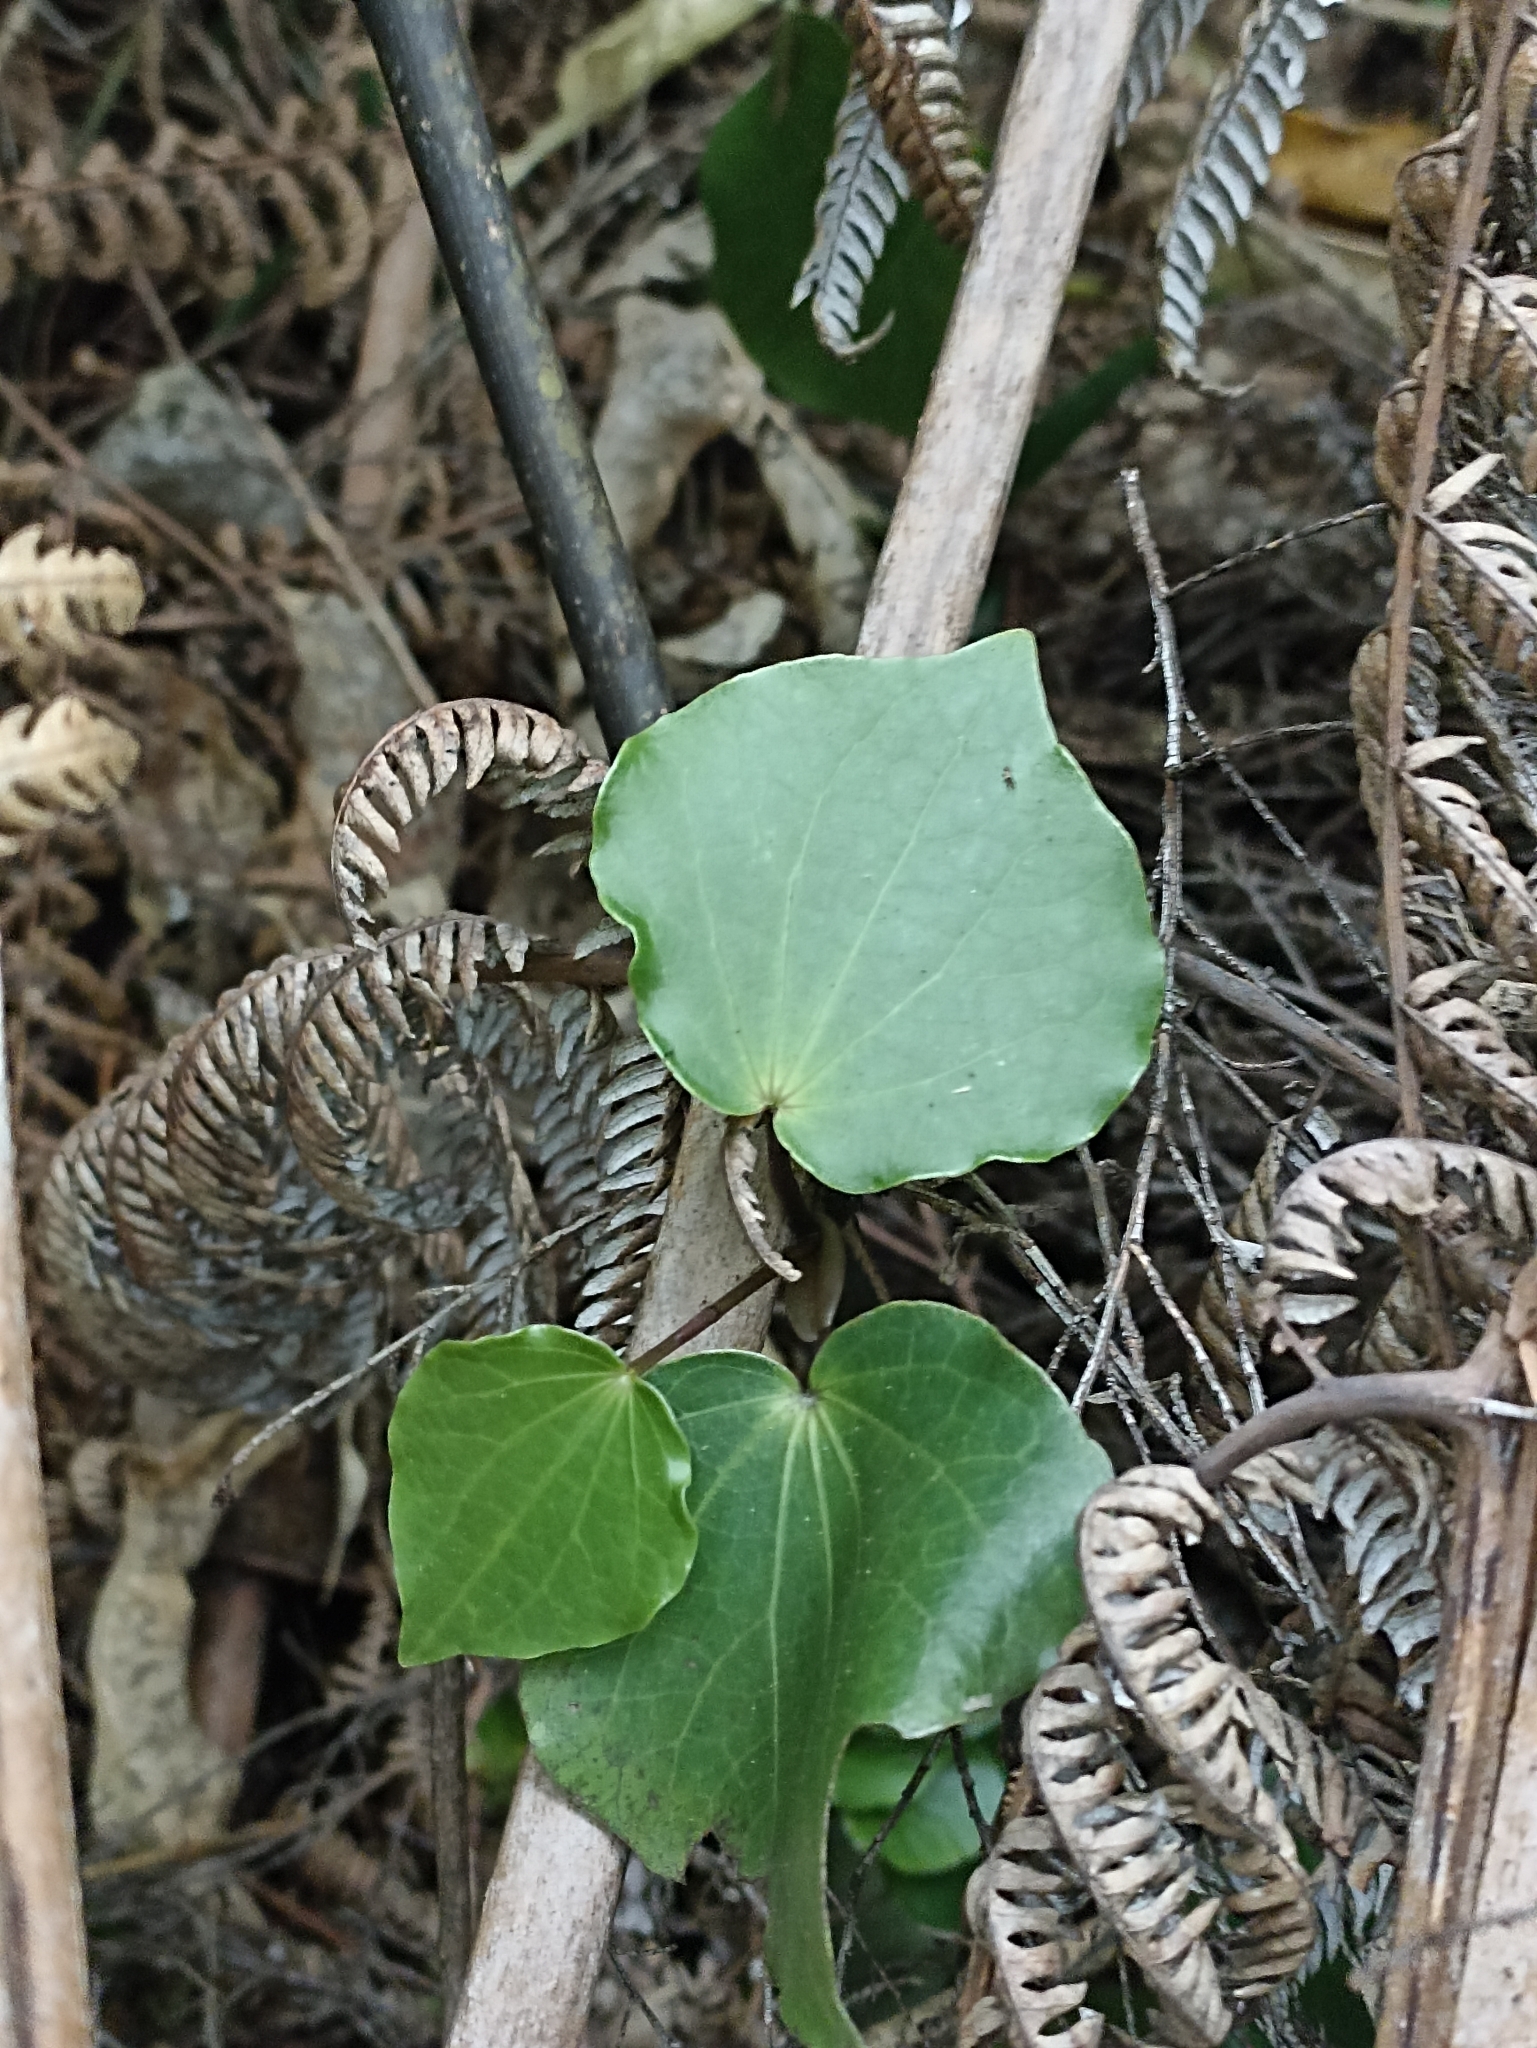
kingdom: Plantae
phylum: Tracheophyta
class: Magnoliopsida
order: Piperales
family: Piperaceae
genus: Macropiper
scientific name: Macropiper excelsum
